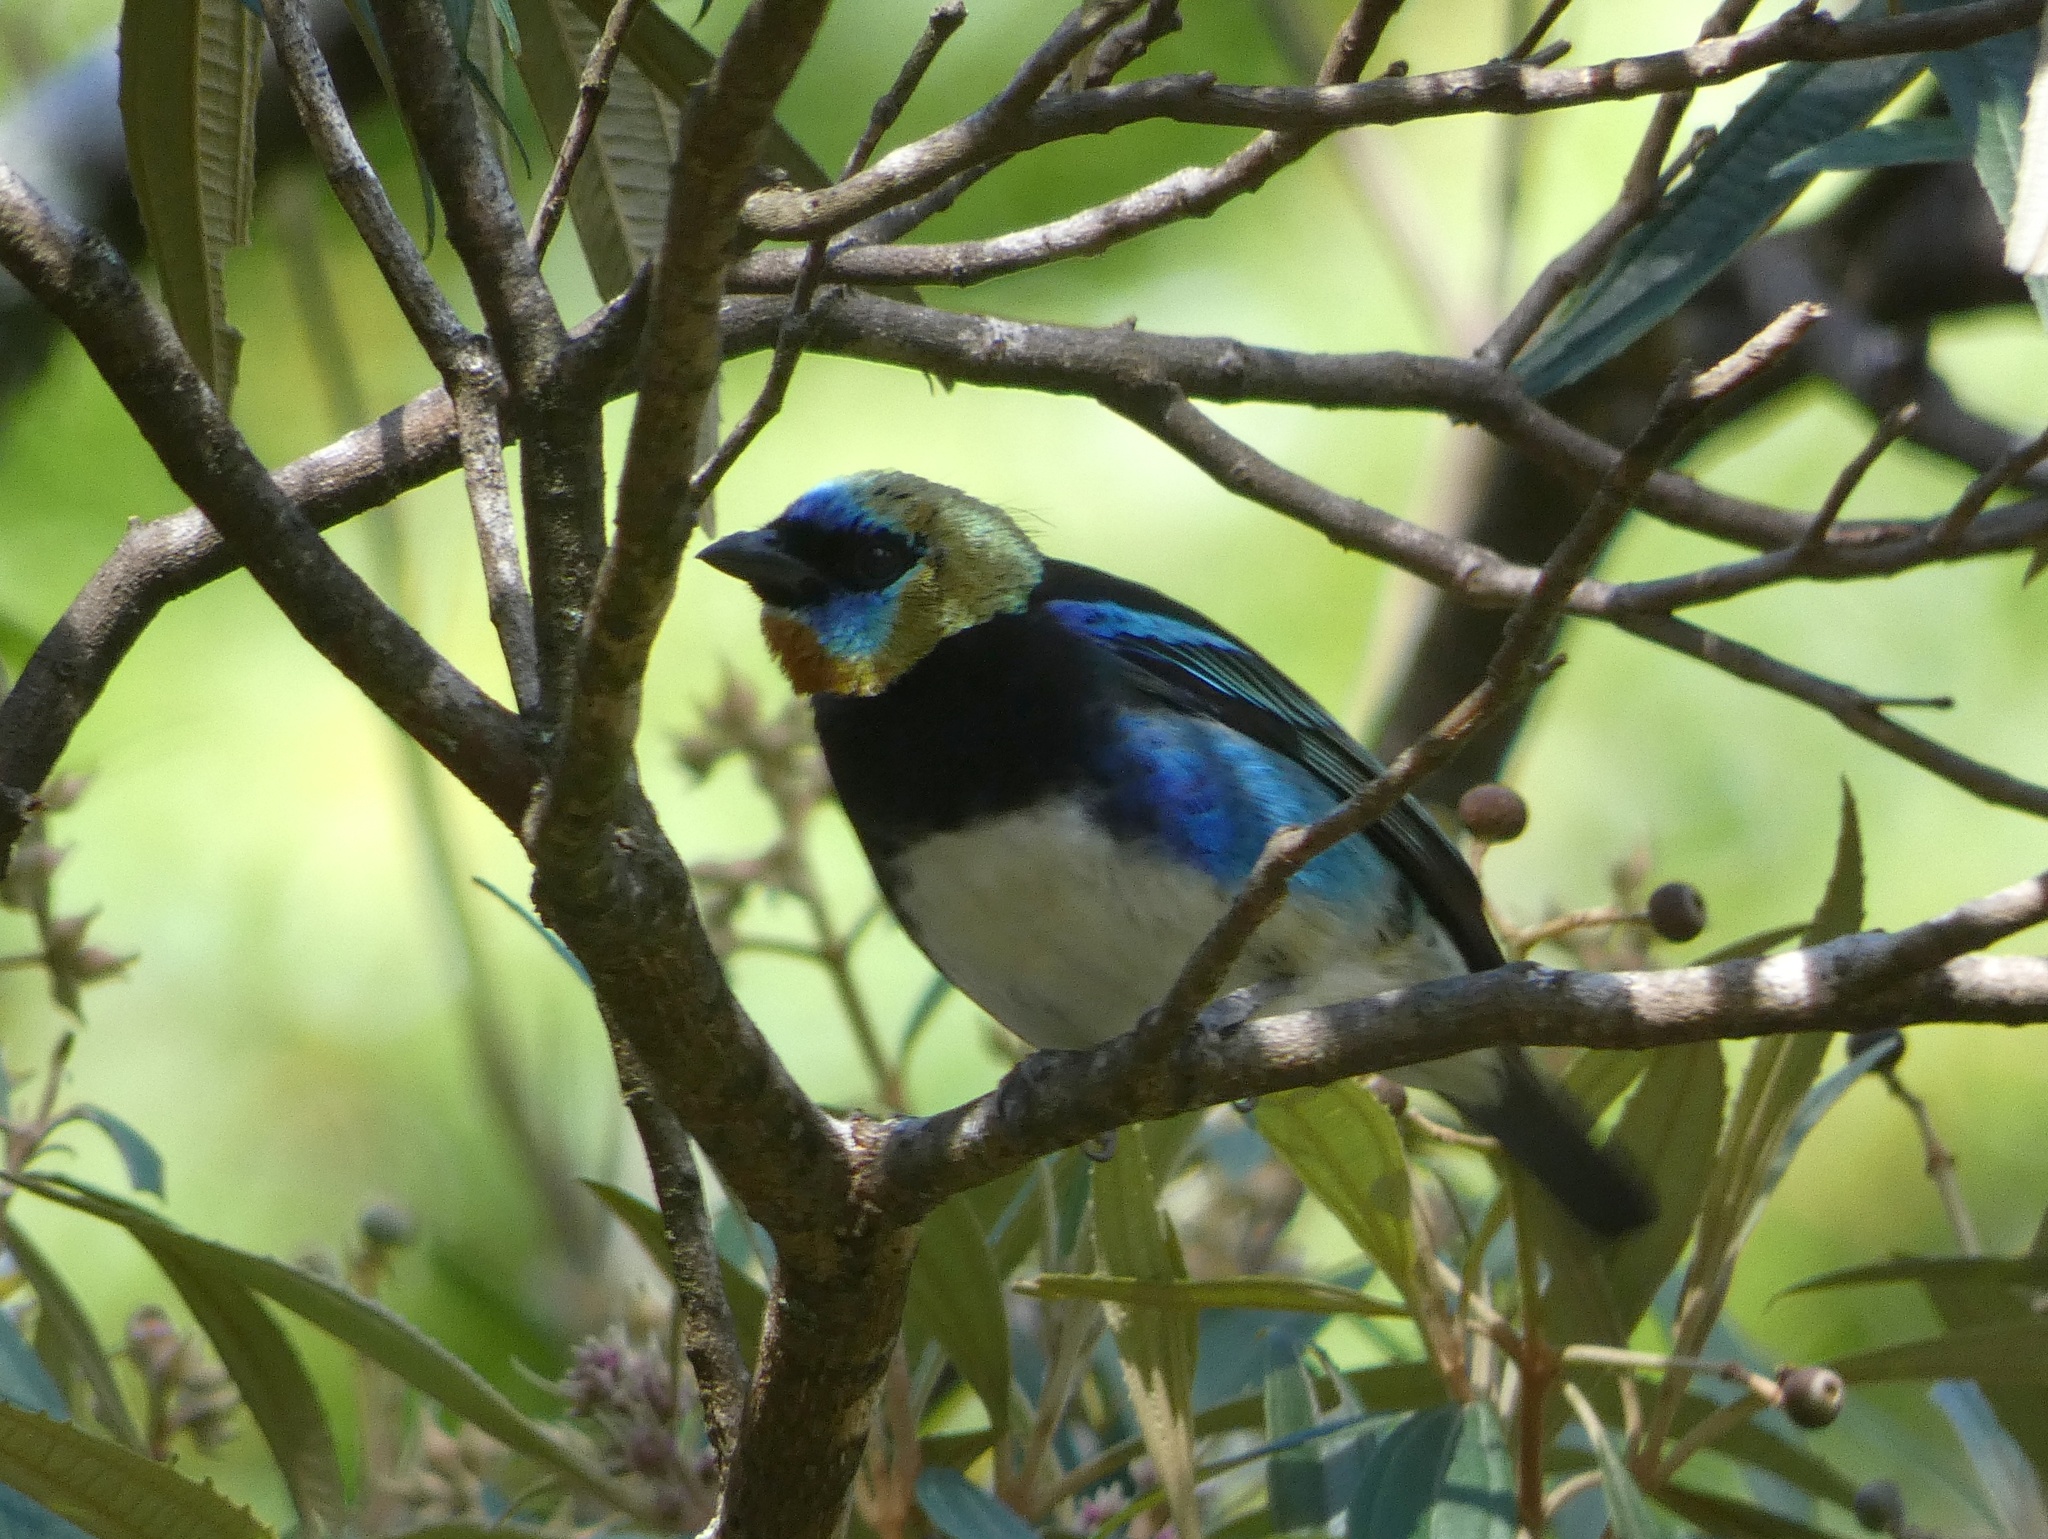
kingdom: Animalia
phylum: Chordata
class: Aves
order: Passeriformes
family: Thraupidae
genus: Stilpnia
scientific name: Stilpnia larvata
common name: Golden-hooded tanager
